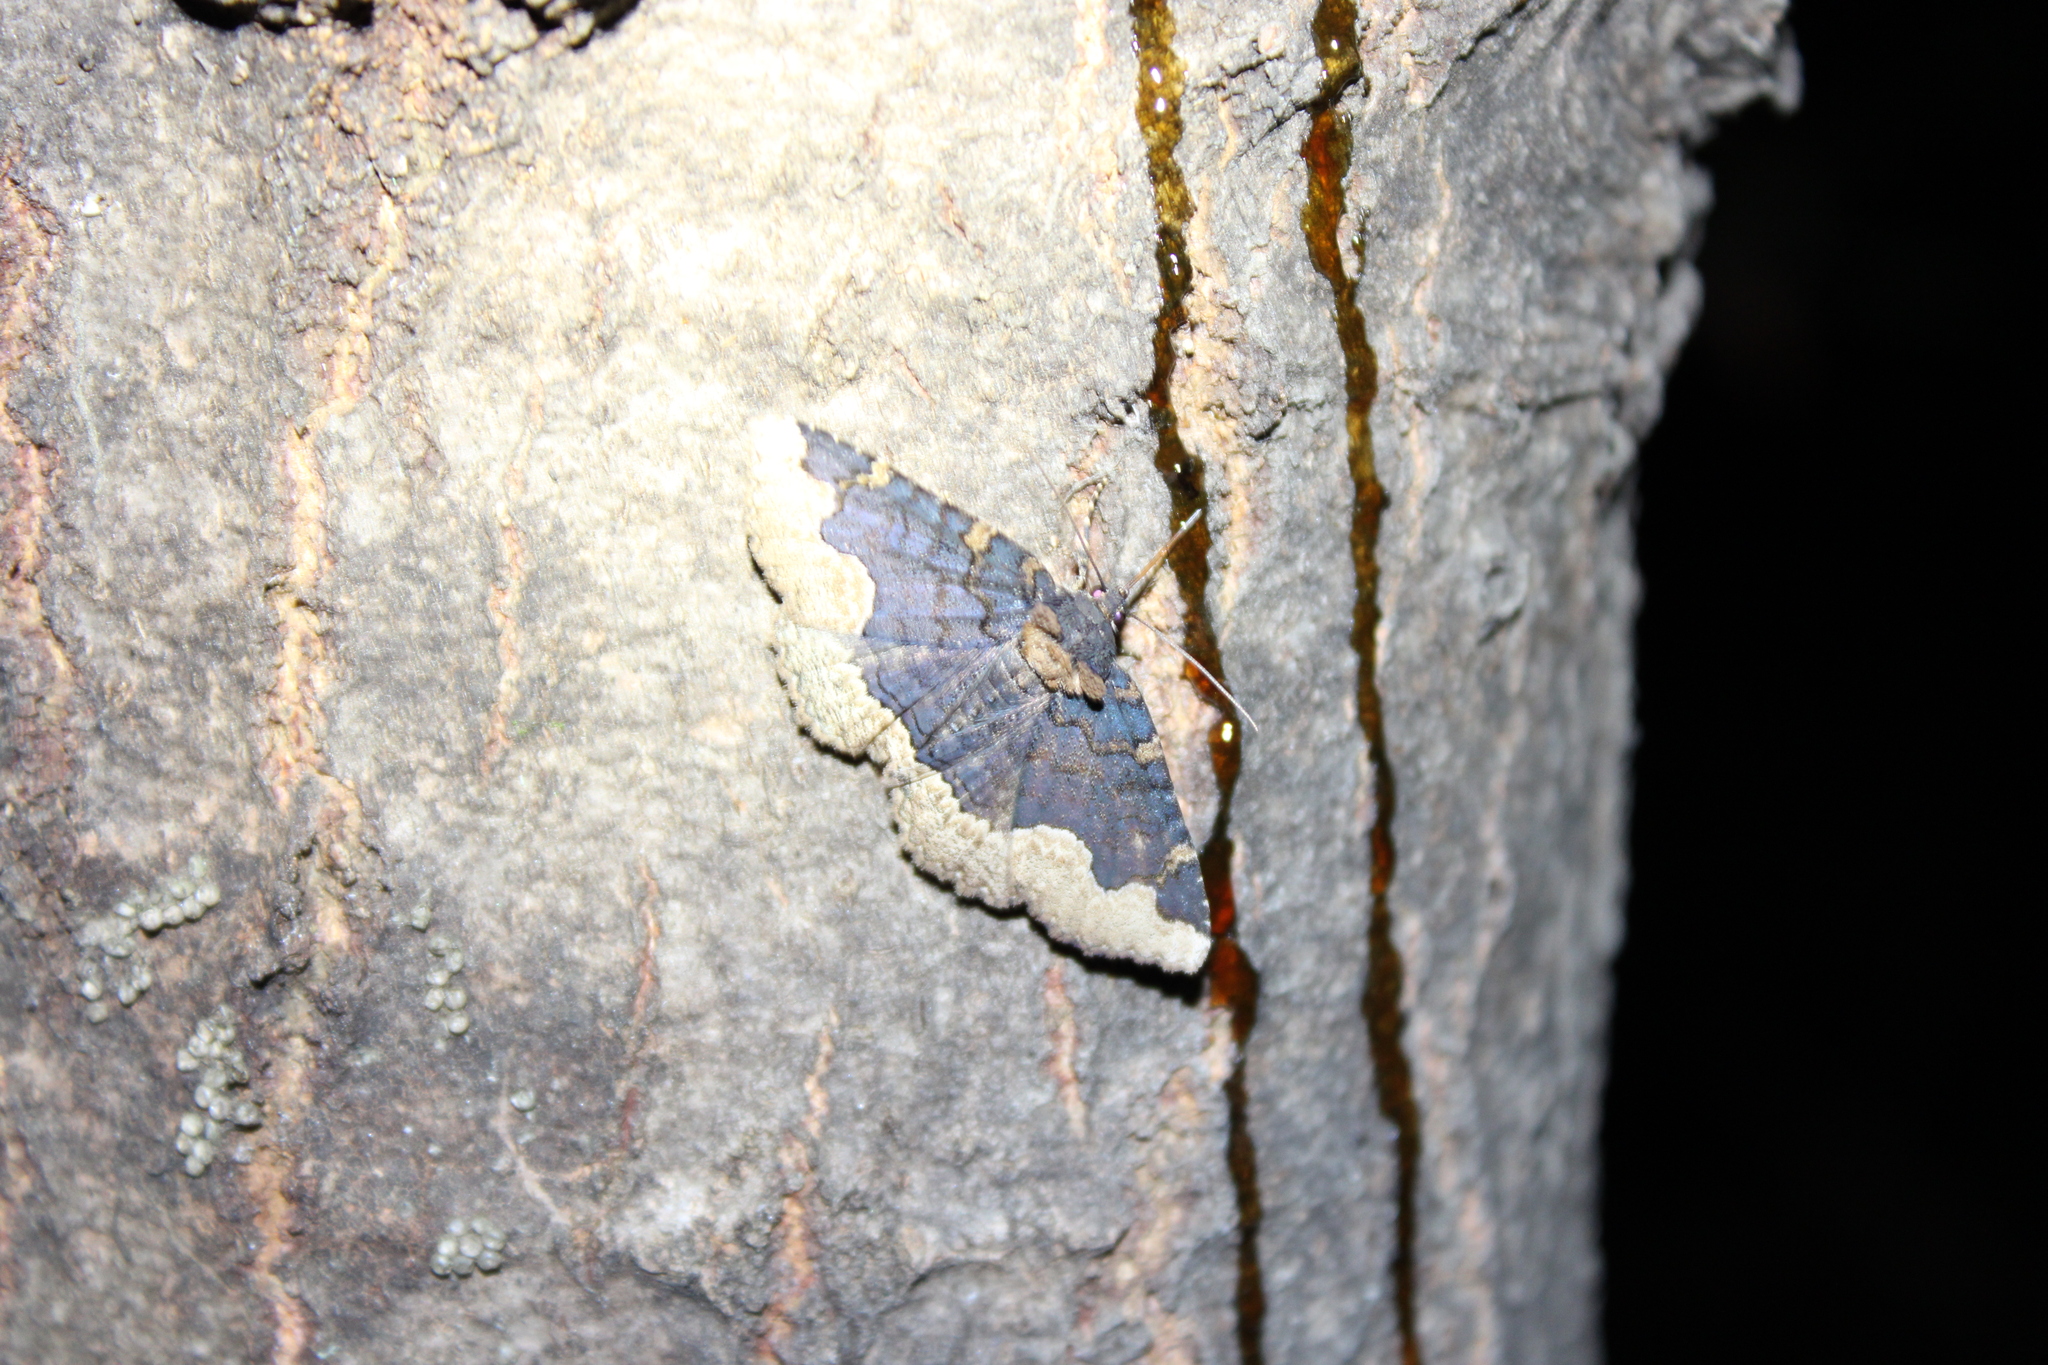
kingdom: Animalia
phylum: Arthropoda
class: Insecta
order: Lepidoptera
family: Erebidae
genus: Zale
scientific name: Zale horrida
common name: Horrid zale moth
